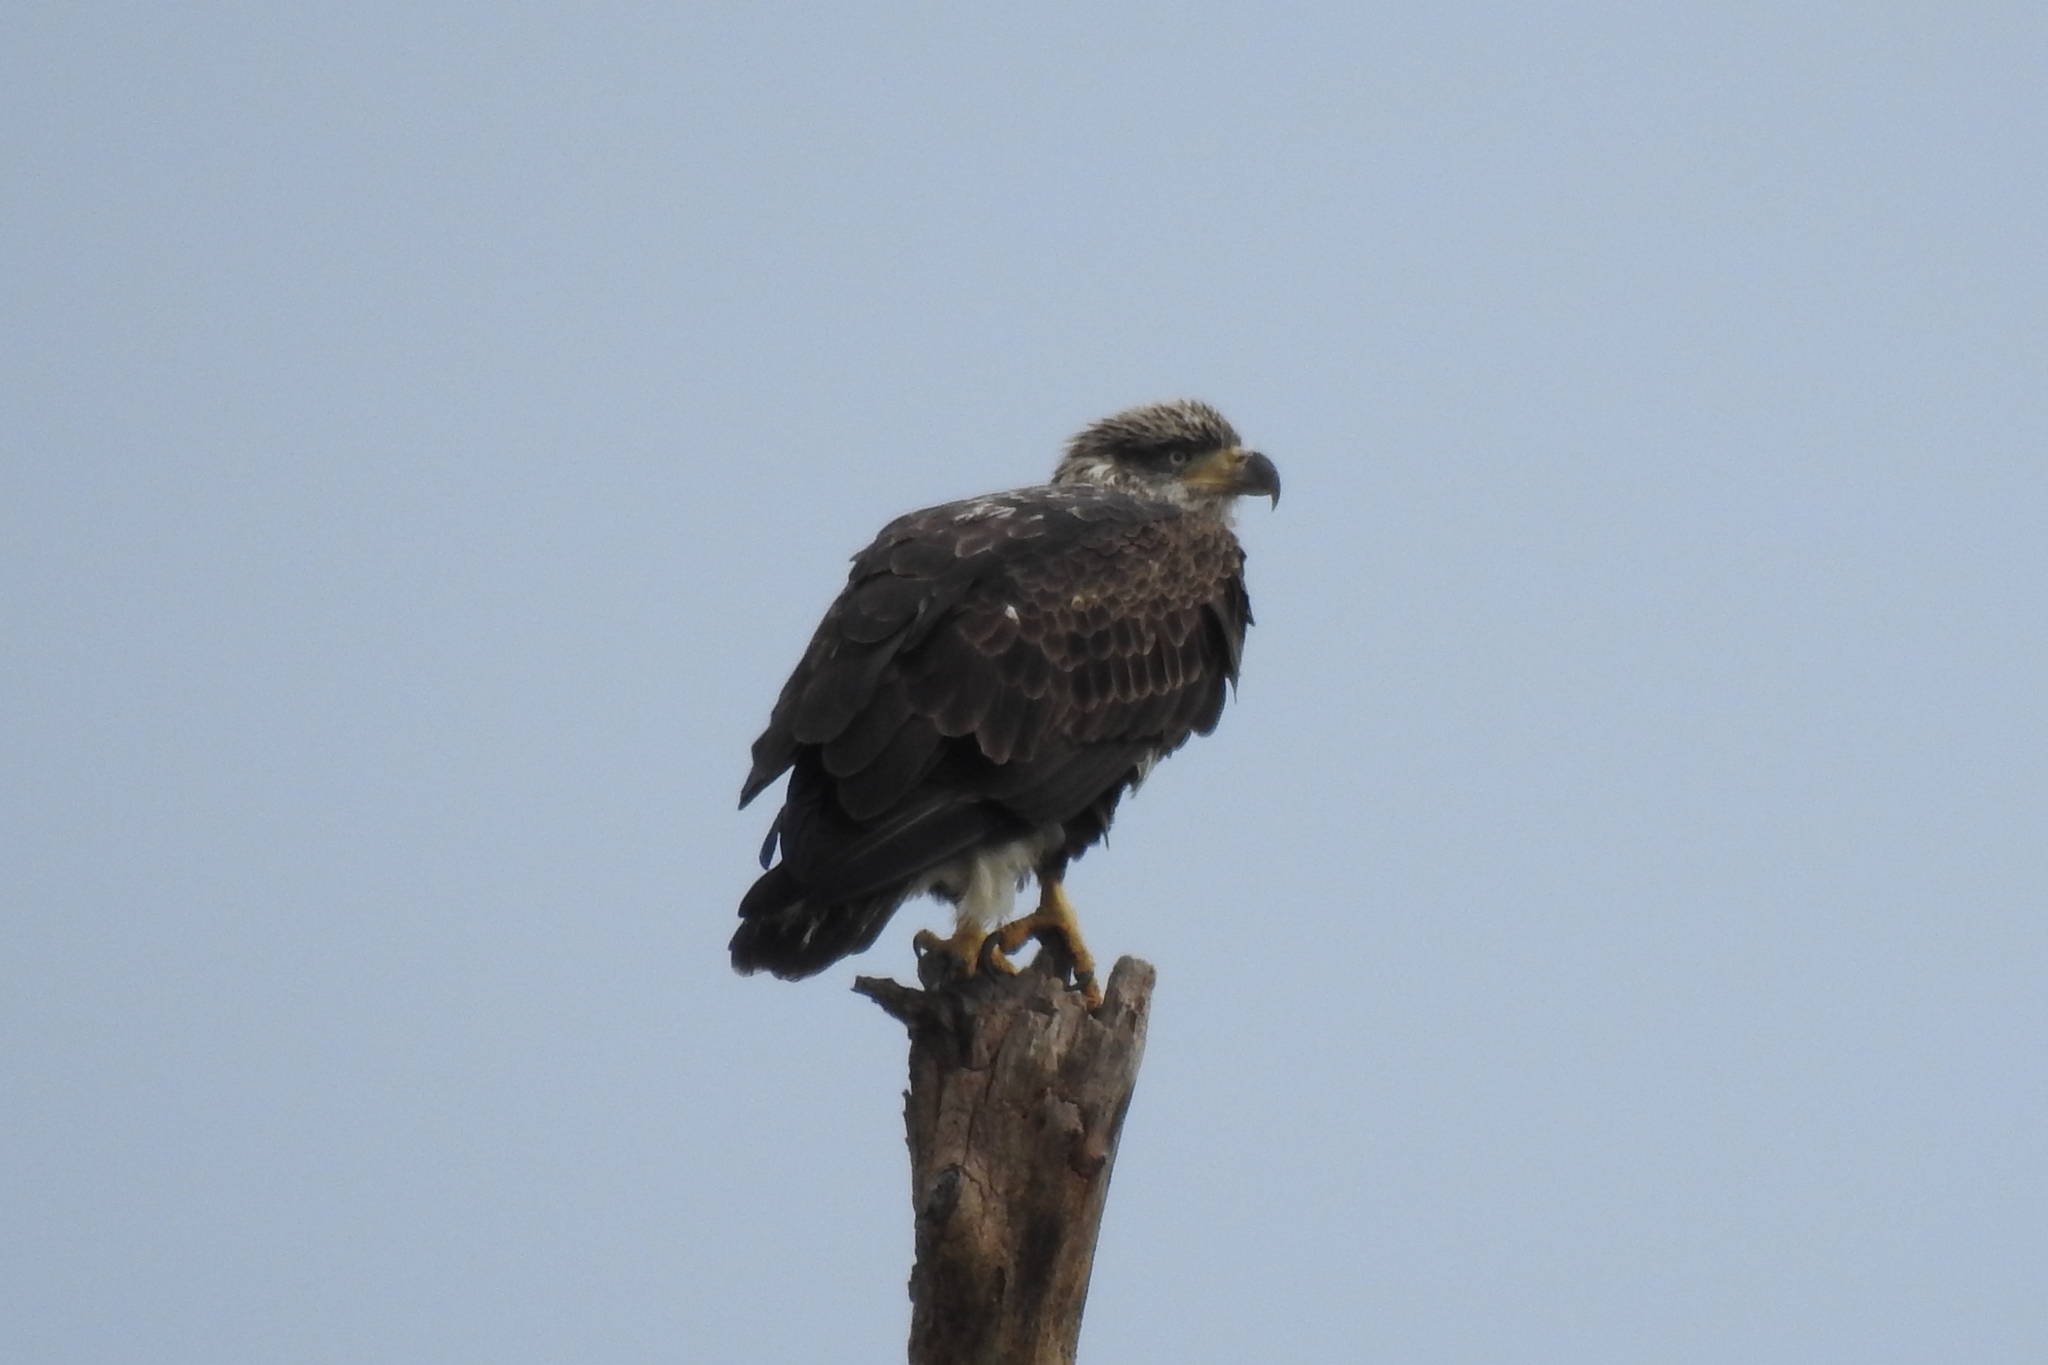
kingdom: Animalia
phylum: Chordata
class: Aves
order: Accipitriformes
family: Accipitridae
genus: Haliaeetus
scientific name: Haliaeetus leucocephalus
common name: Bald eagle
